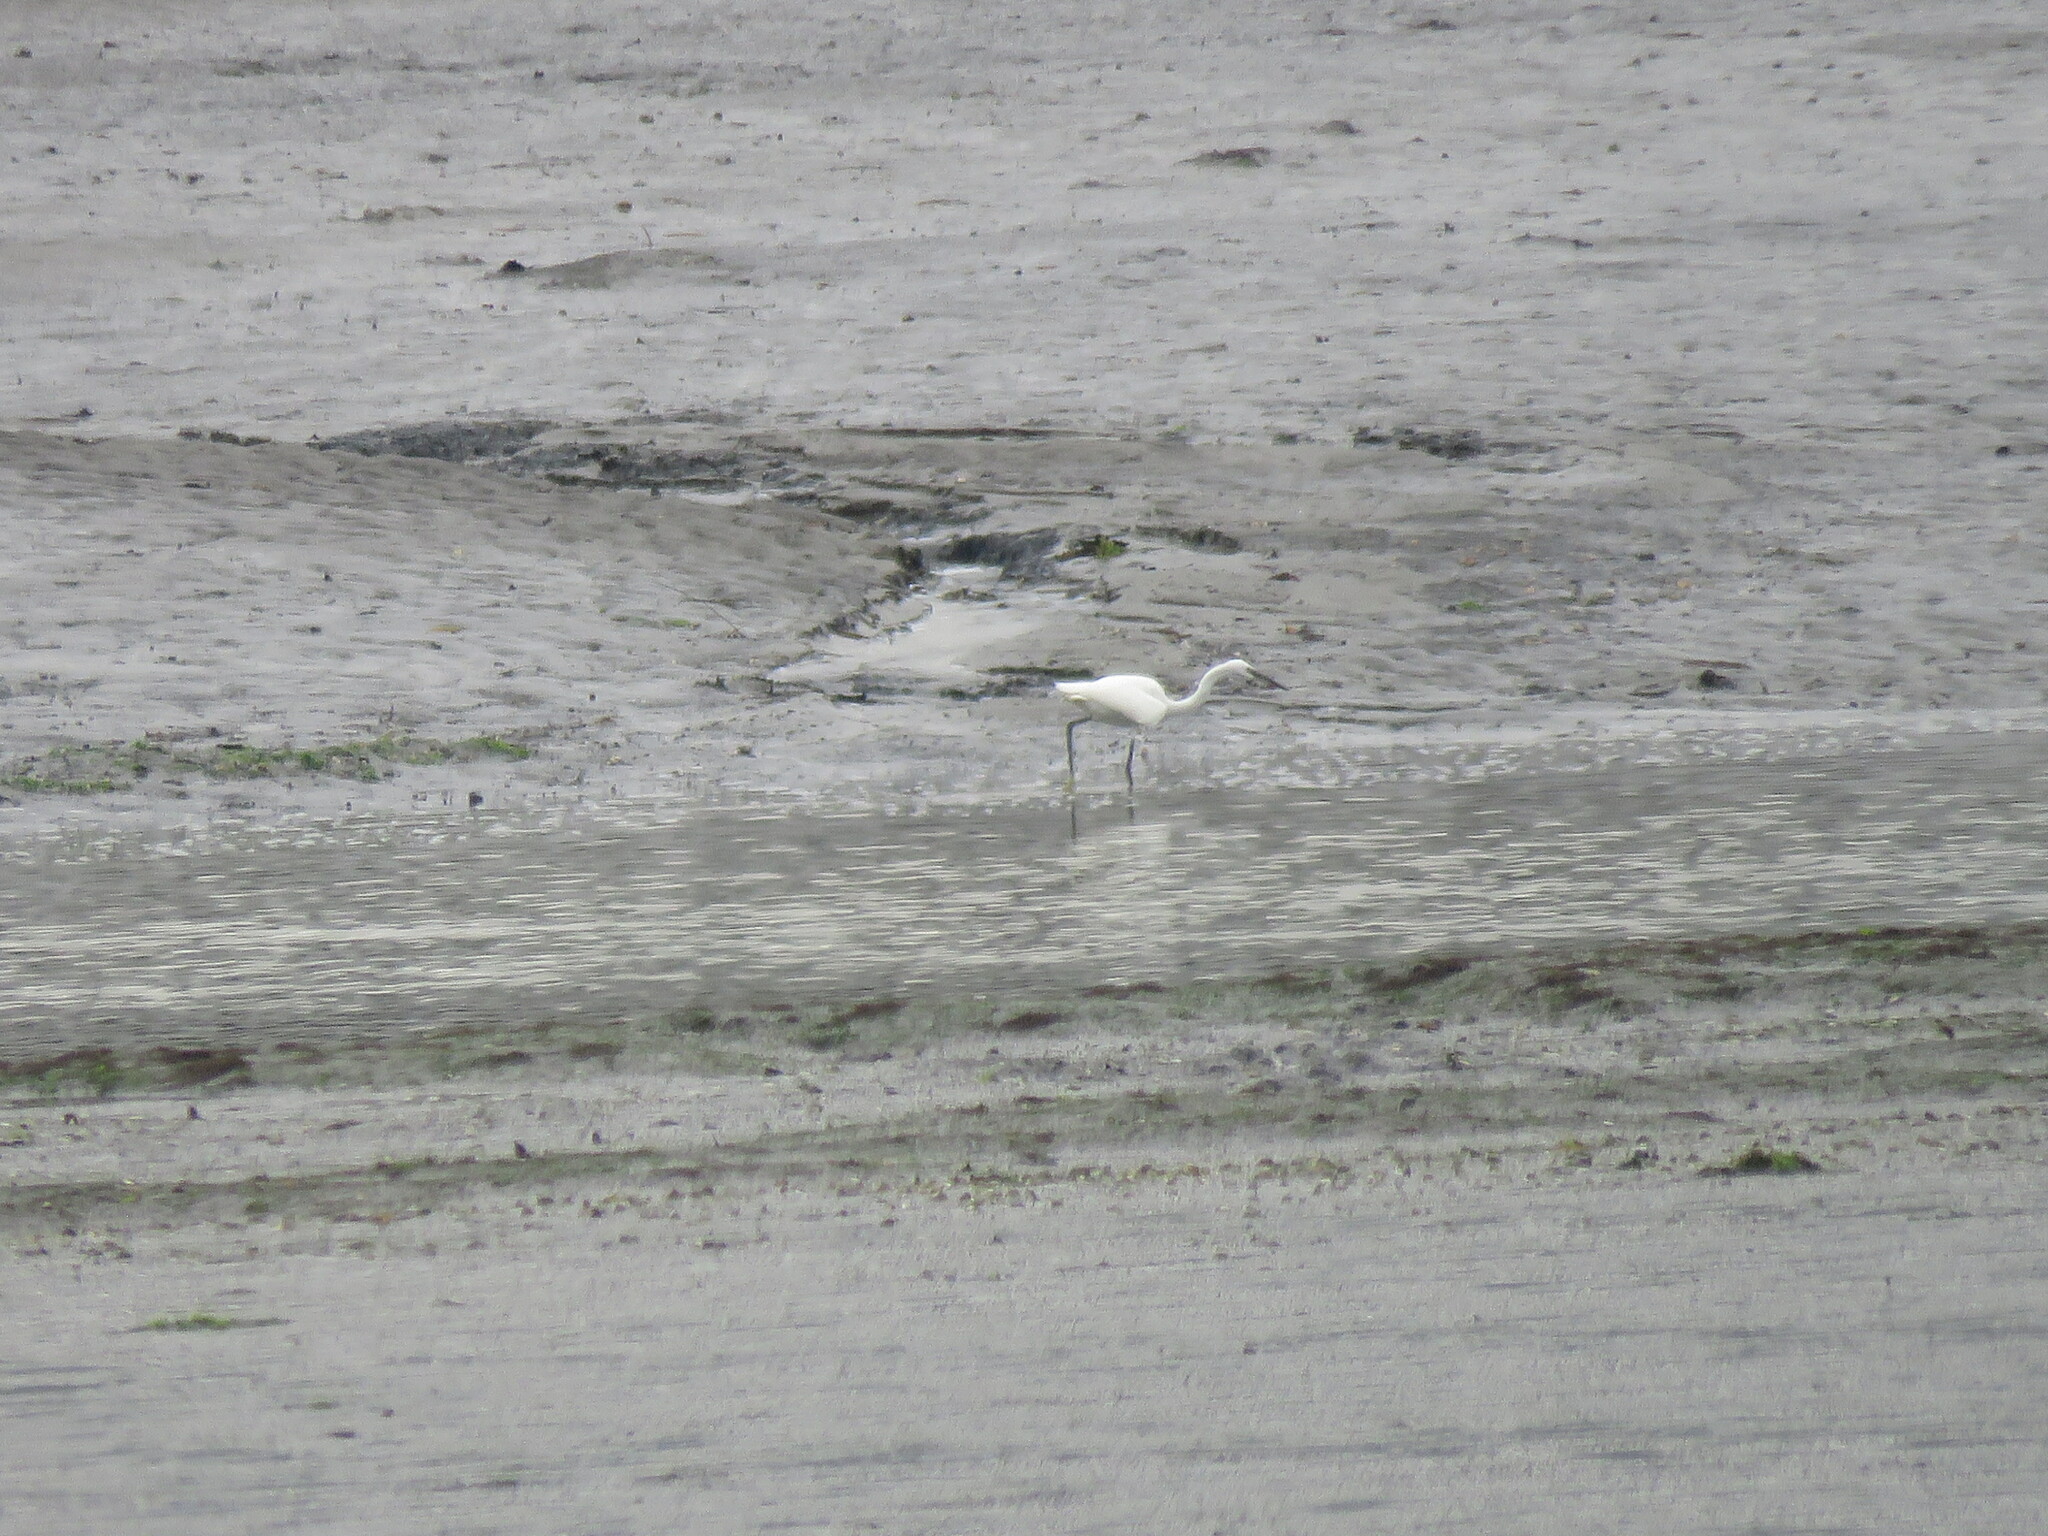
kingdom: Animalia
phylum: Chordata
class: Aves
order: Pelecaniformes
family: Ardeidae
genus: Egretta
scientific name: Egretta garzetta
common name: Little egret
